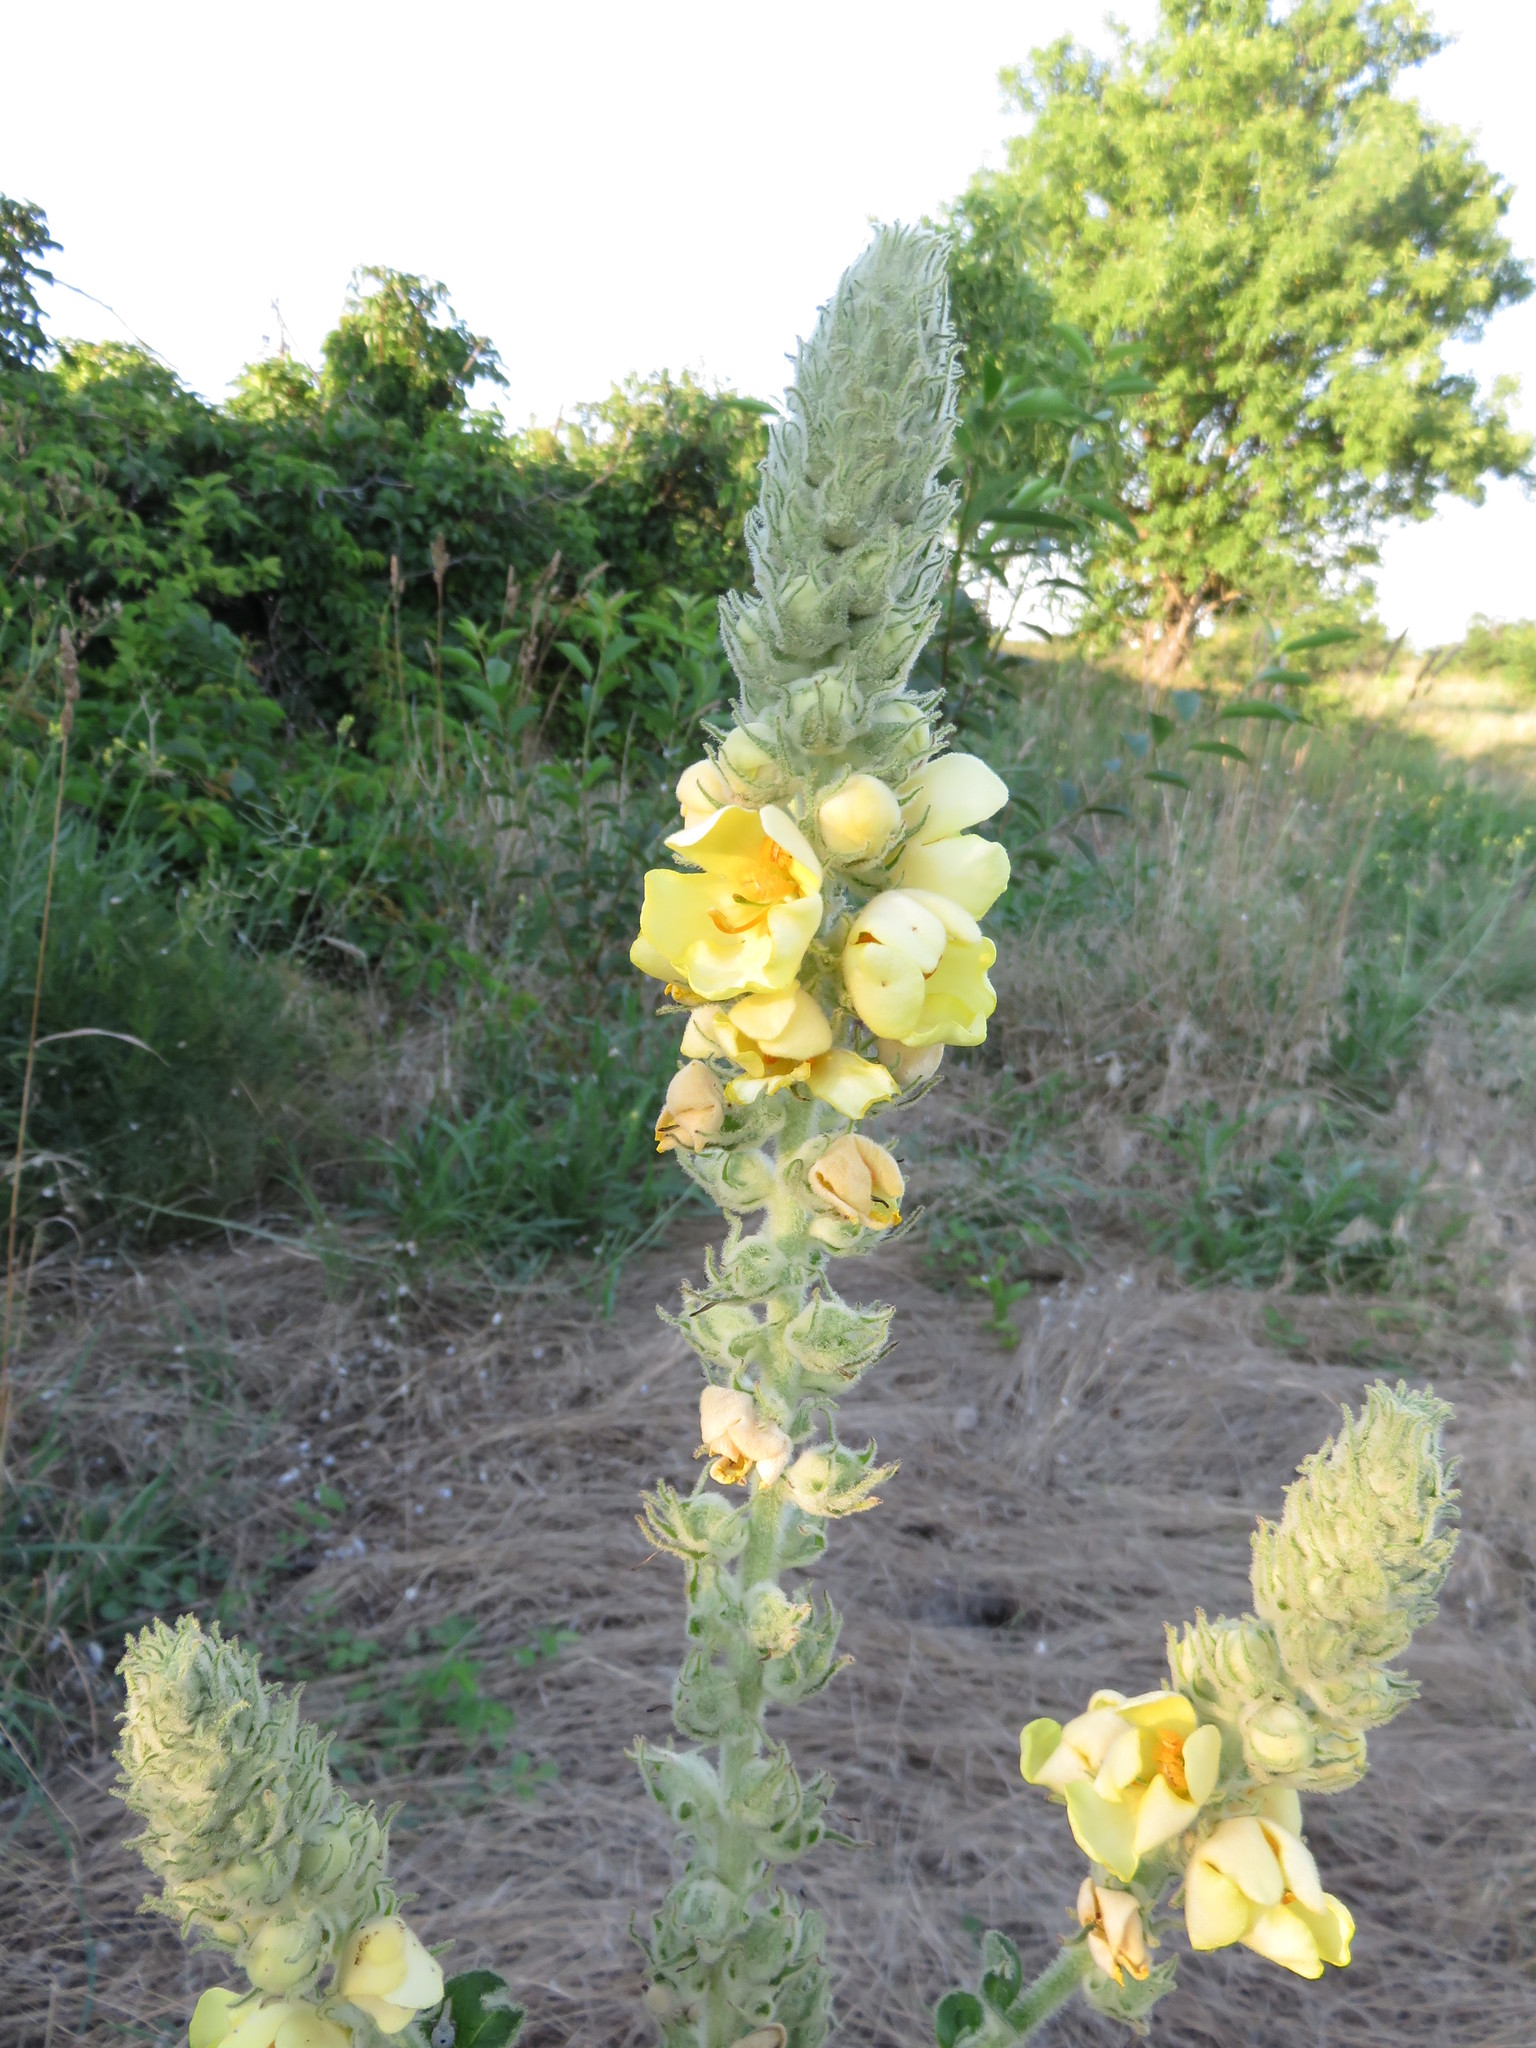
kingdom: Plantae
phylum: Tracheophyta
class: Magnoliopsida
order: Lamiales
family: Scrophulariaceae
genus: Verbascum
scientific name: Verbascum thapsus
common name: Common mullein
